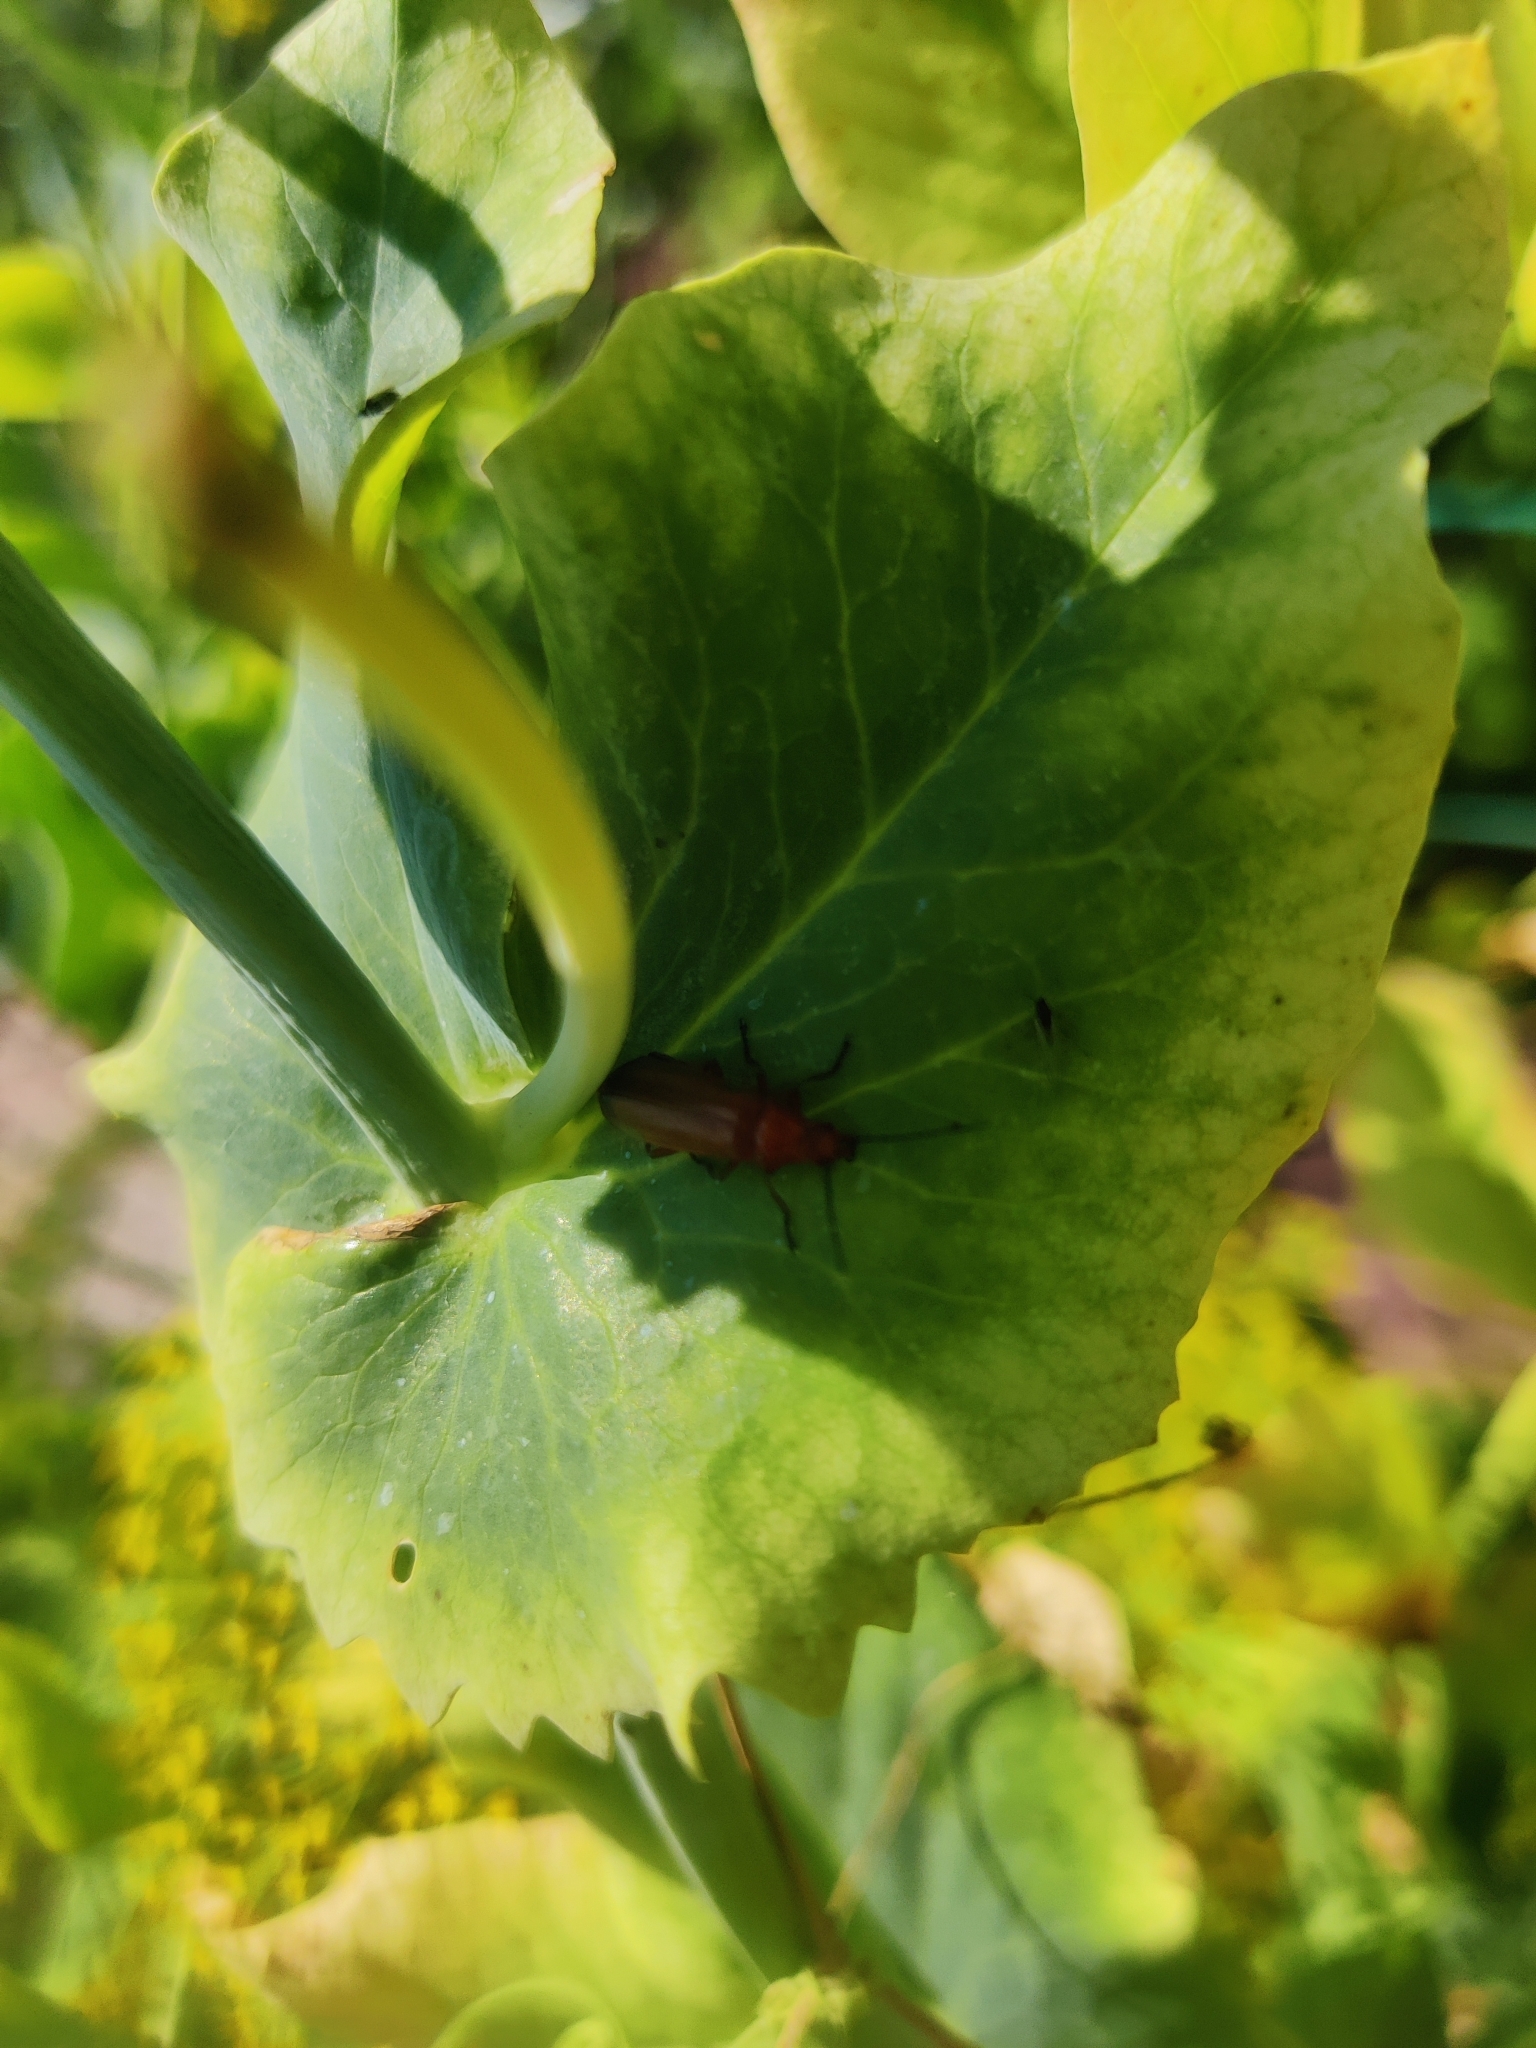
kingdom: Animalia
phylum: Arthropoda
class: Insecta
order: Coleoptera
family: Cantharidae
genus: Rhagonycha
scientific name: Rhagonycha fulva
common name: Common red soldier beetle
